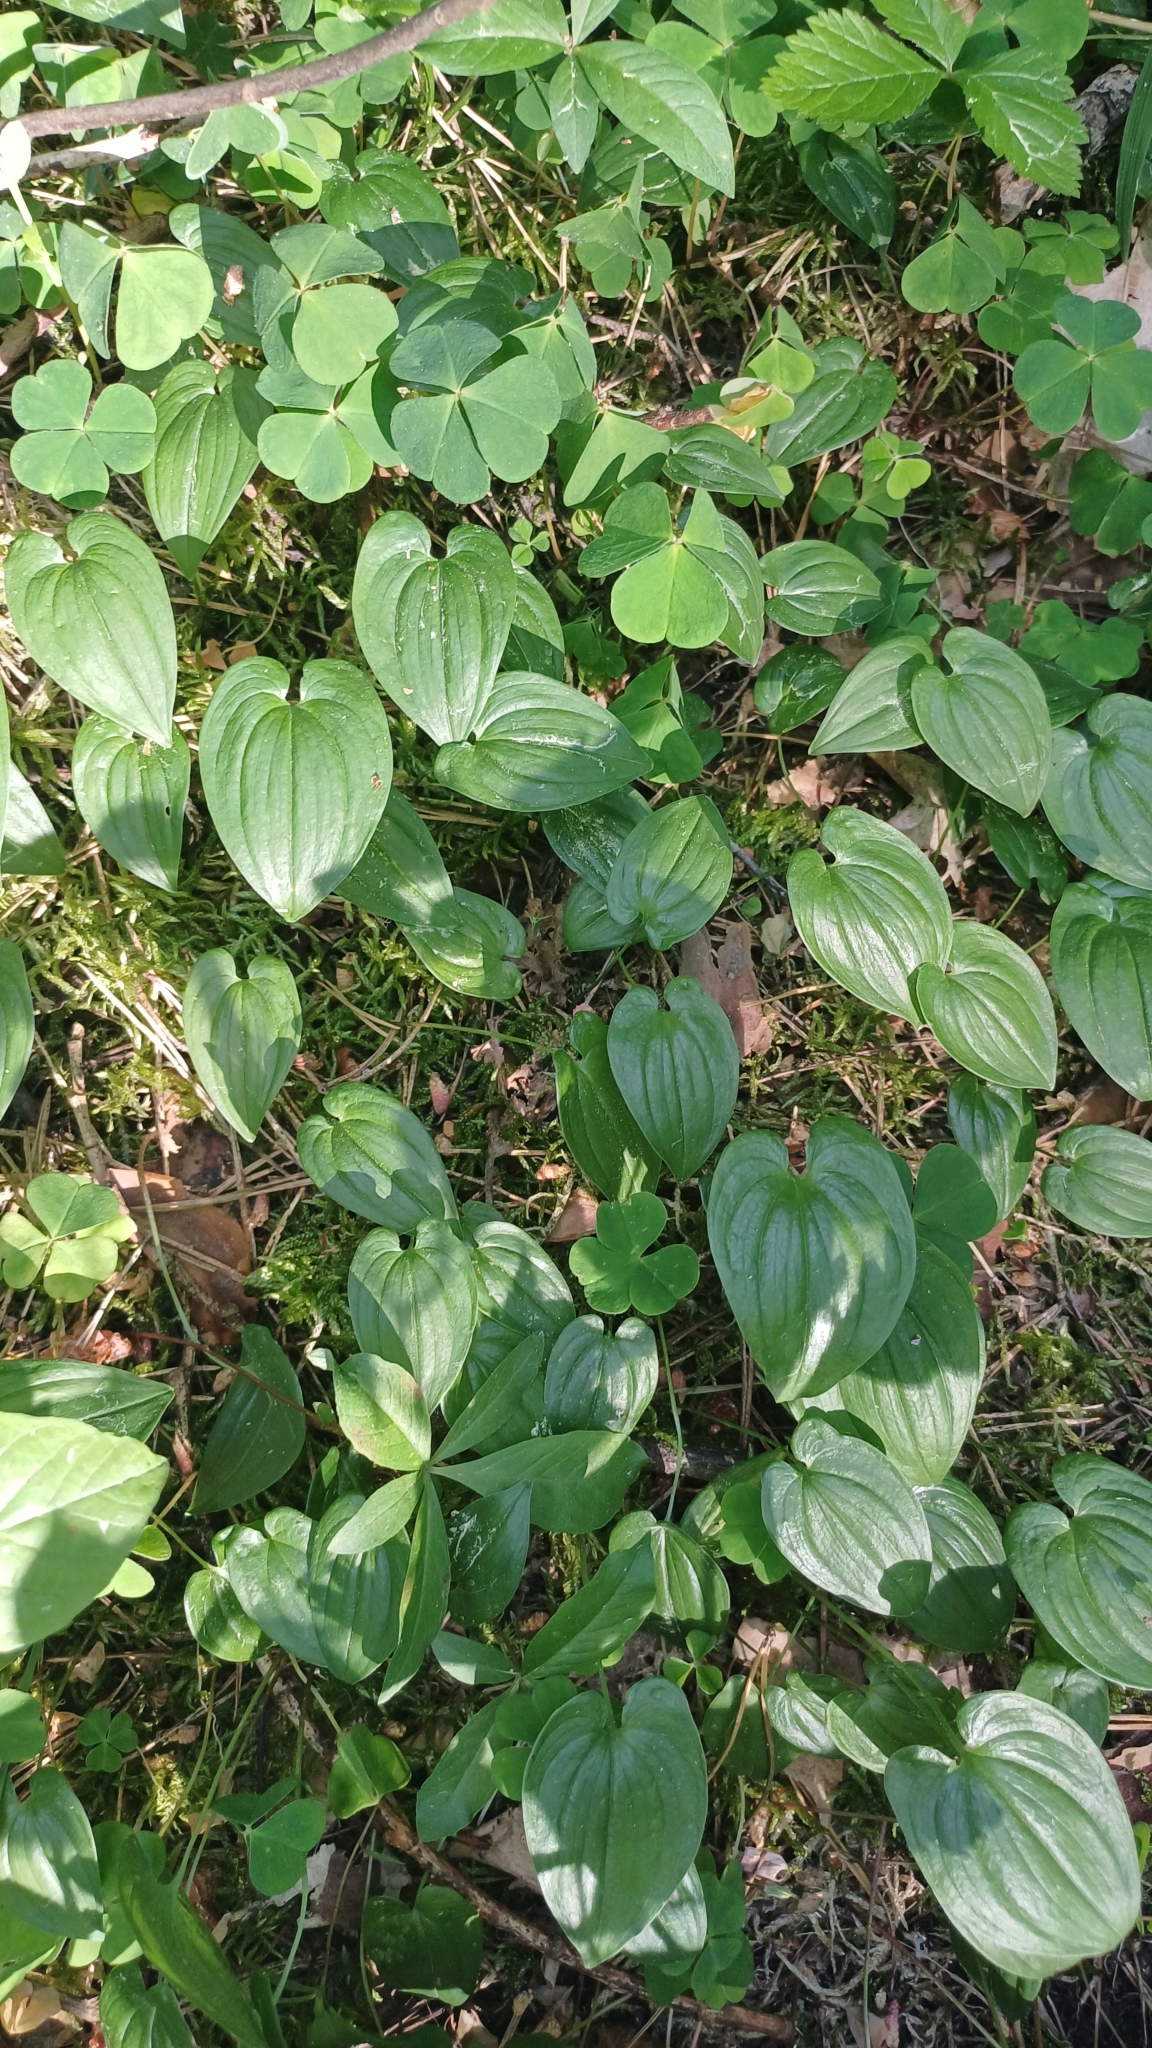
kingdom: Plantae
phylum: Tracheophyta
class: Liliopsida
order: Asparagales
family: Asparagaceae
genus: Maianthemum
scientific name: Maianthemum bifolium
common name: May lily
